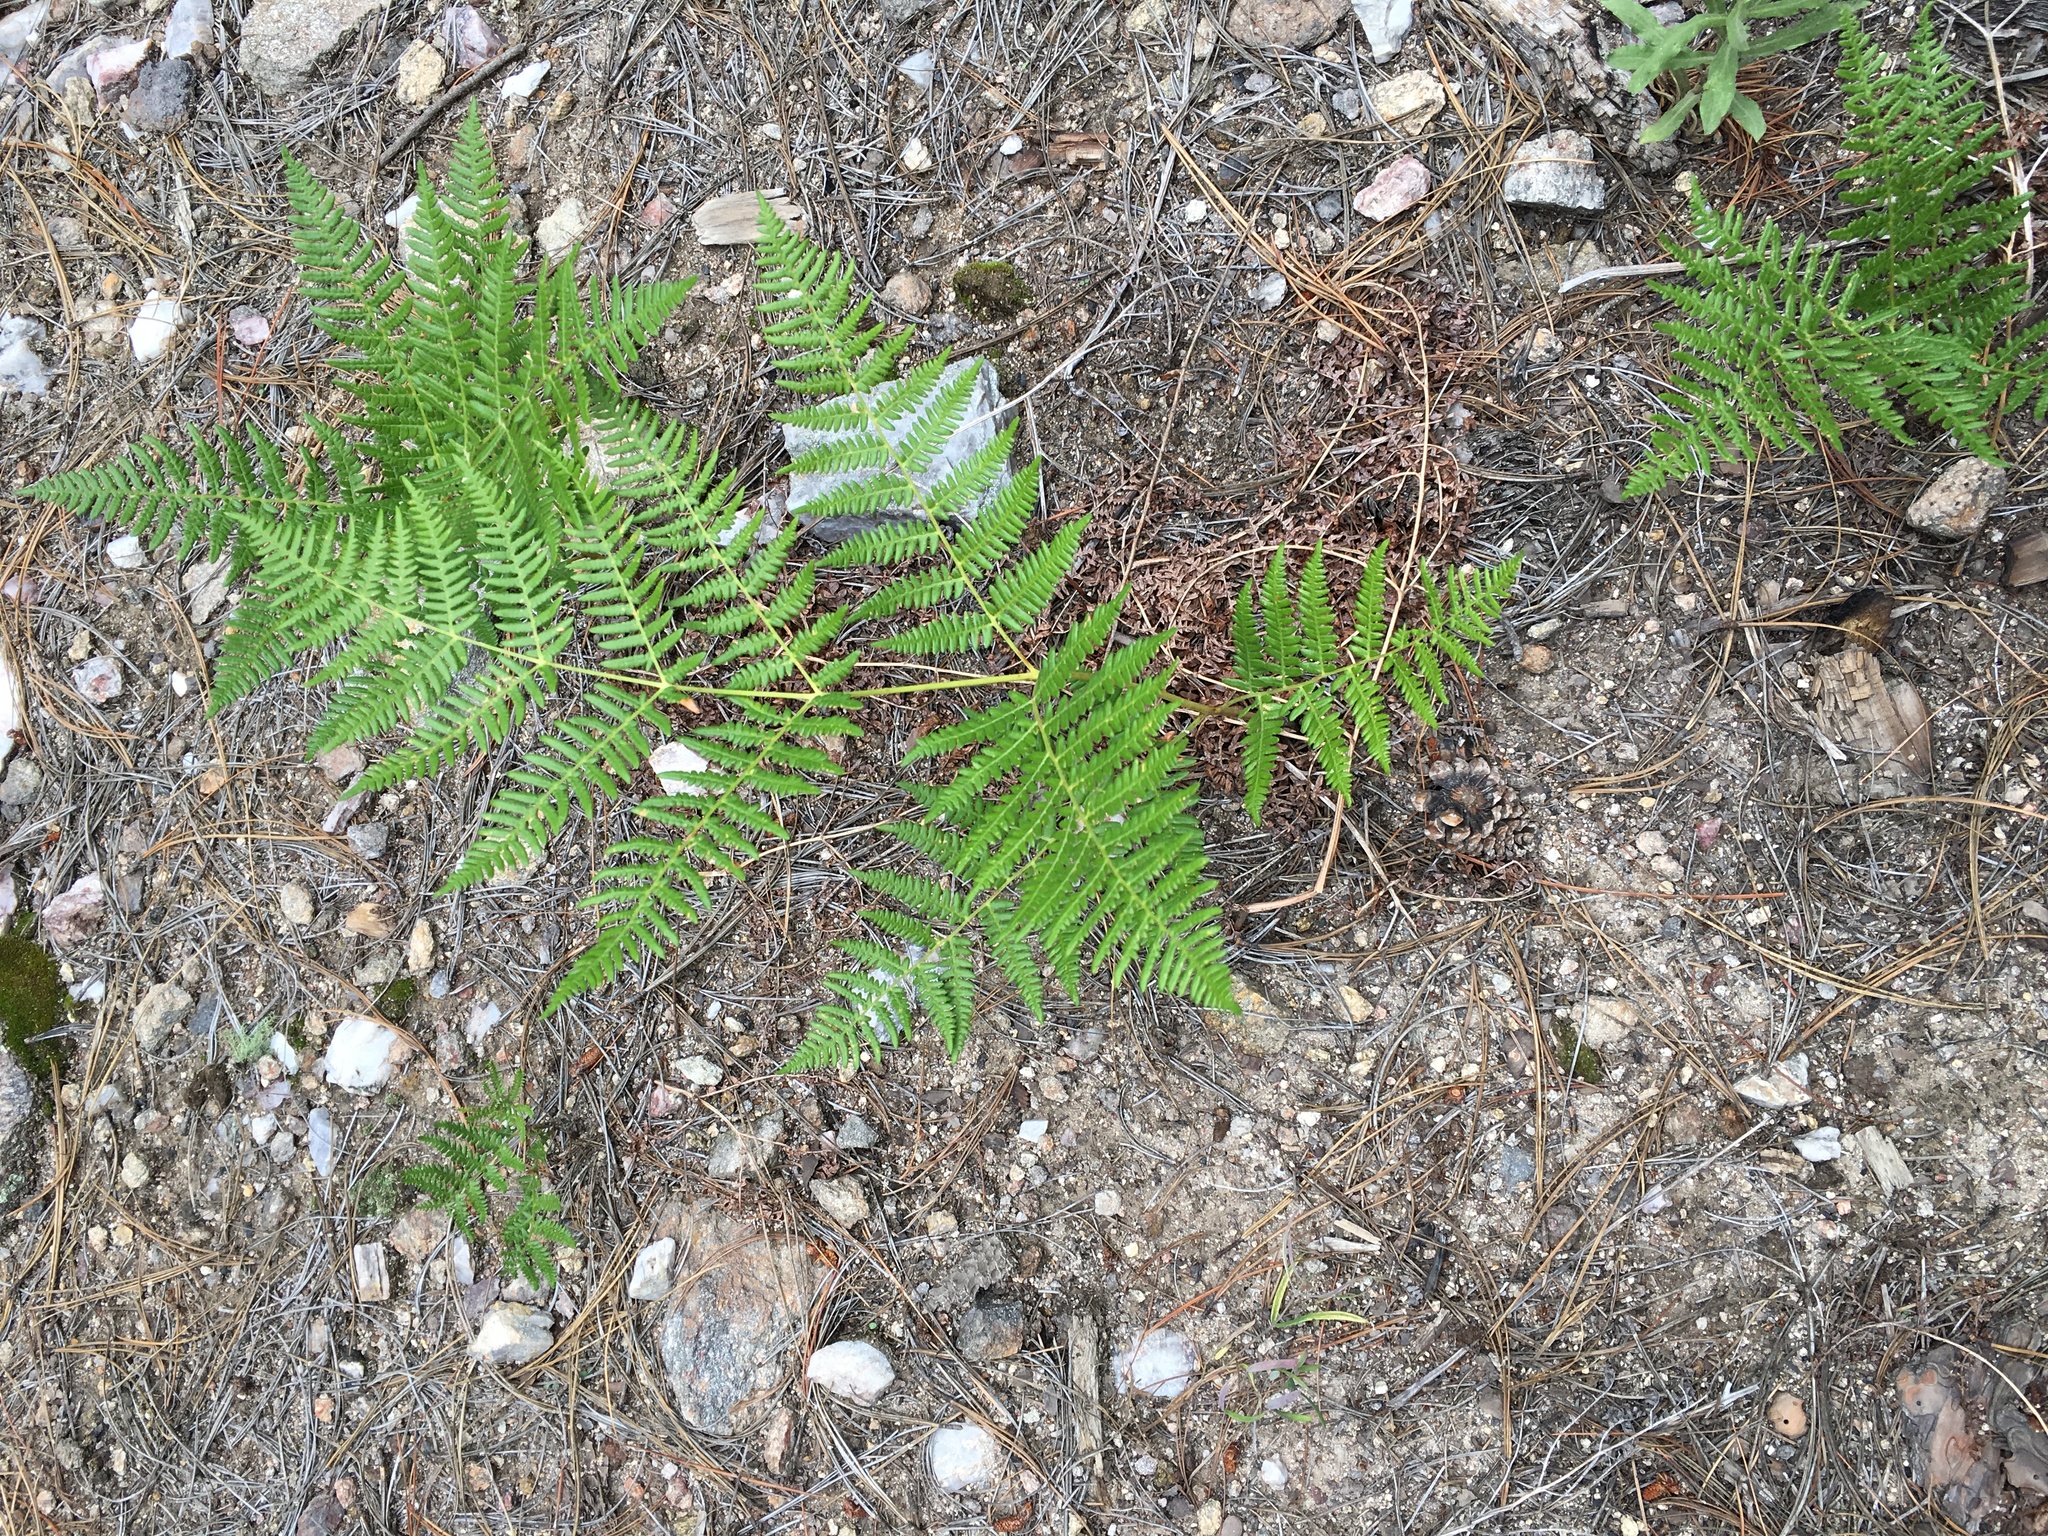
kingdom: Plantae
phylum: Tracheophyta
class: Polypodiopsida
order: Polypodiales
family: Dennstaedtiaceae
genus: Pteridium
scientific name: Pteridium aquilinum
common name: Bracken
